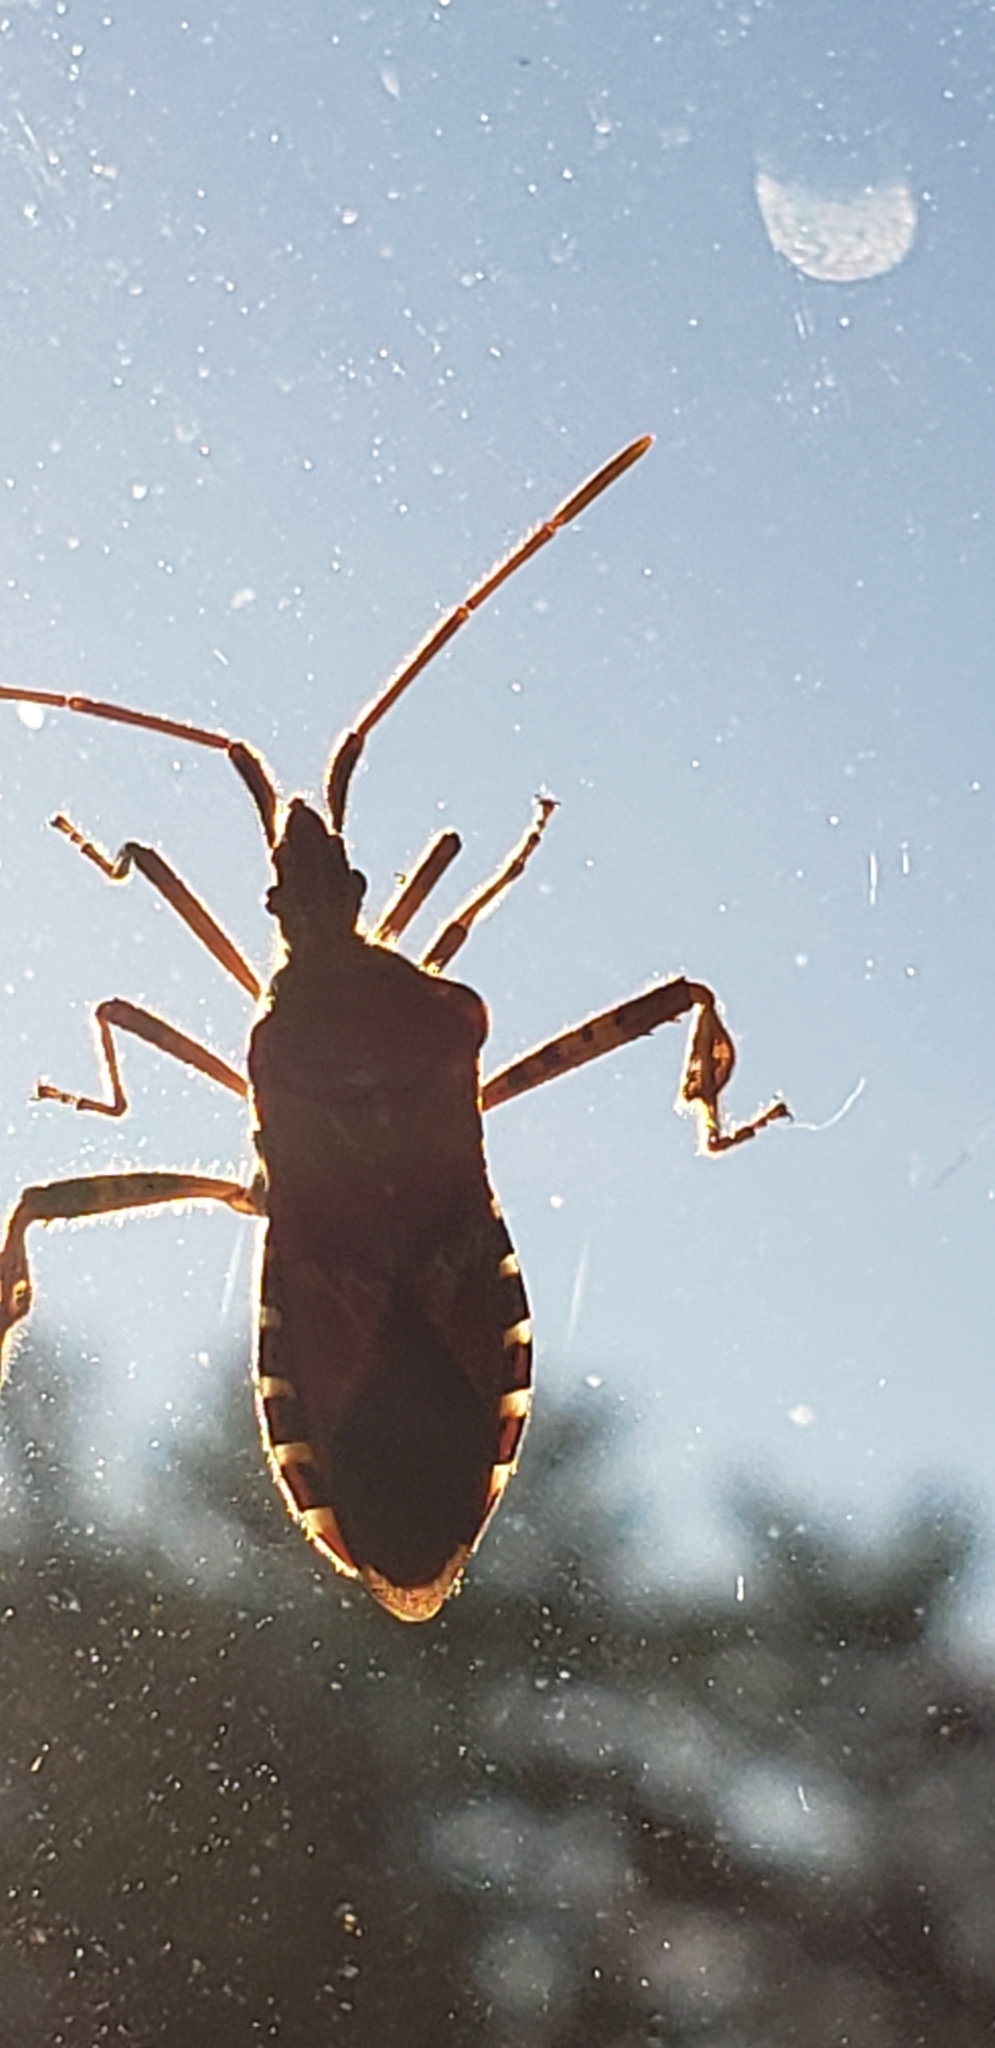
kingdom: Animalia
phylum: Arthropoda
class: Insecta
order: Hemiptera
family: Coreidae
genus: Leptoglossus
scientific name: Leptoglossus occidentalis
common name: Western conifer-seed bug
